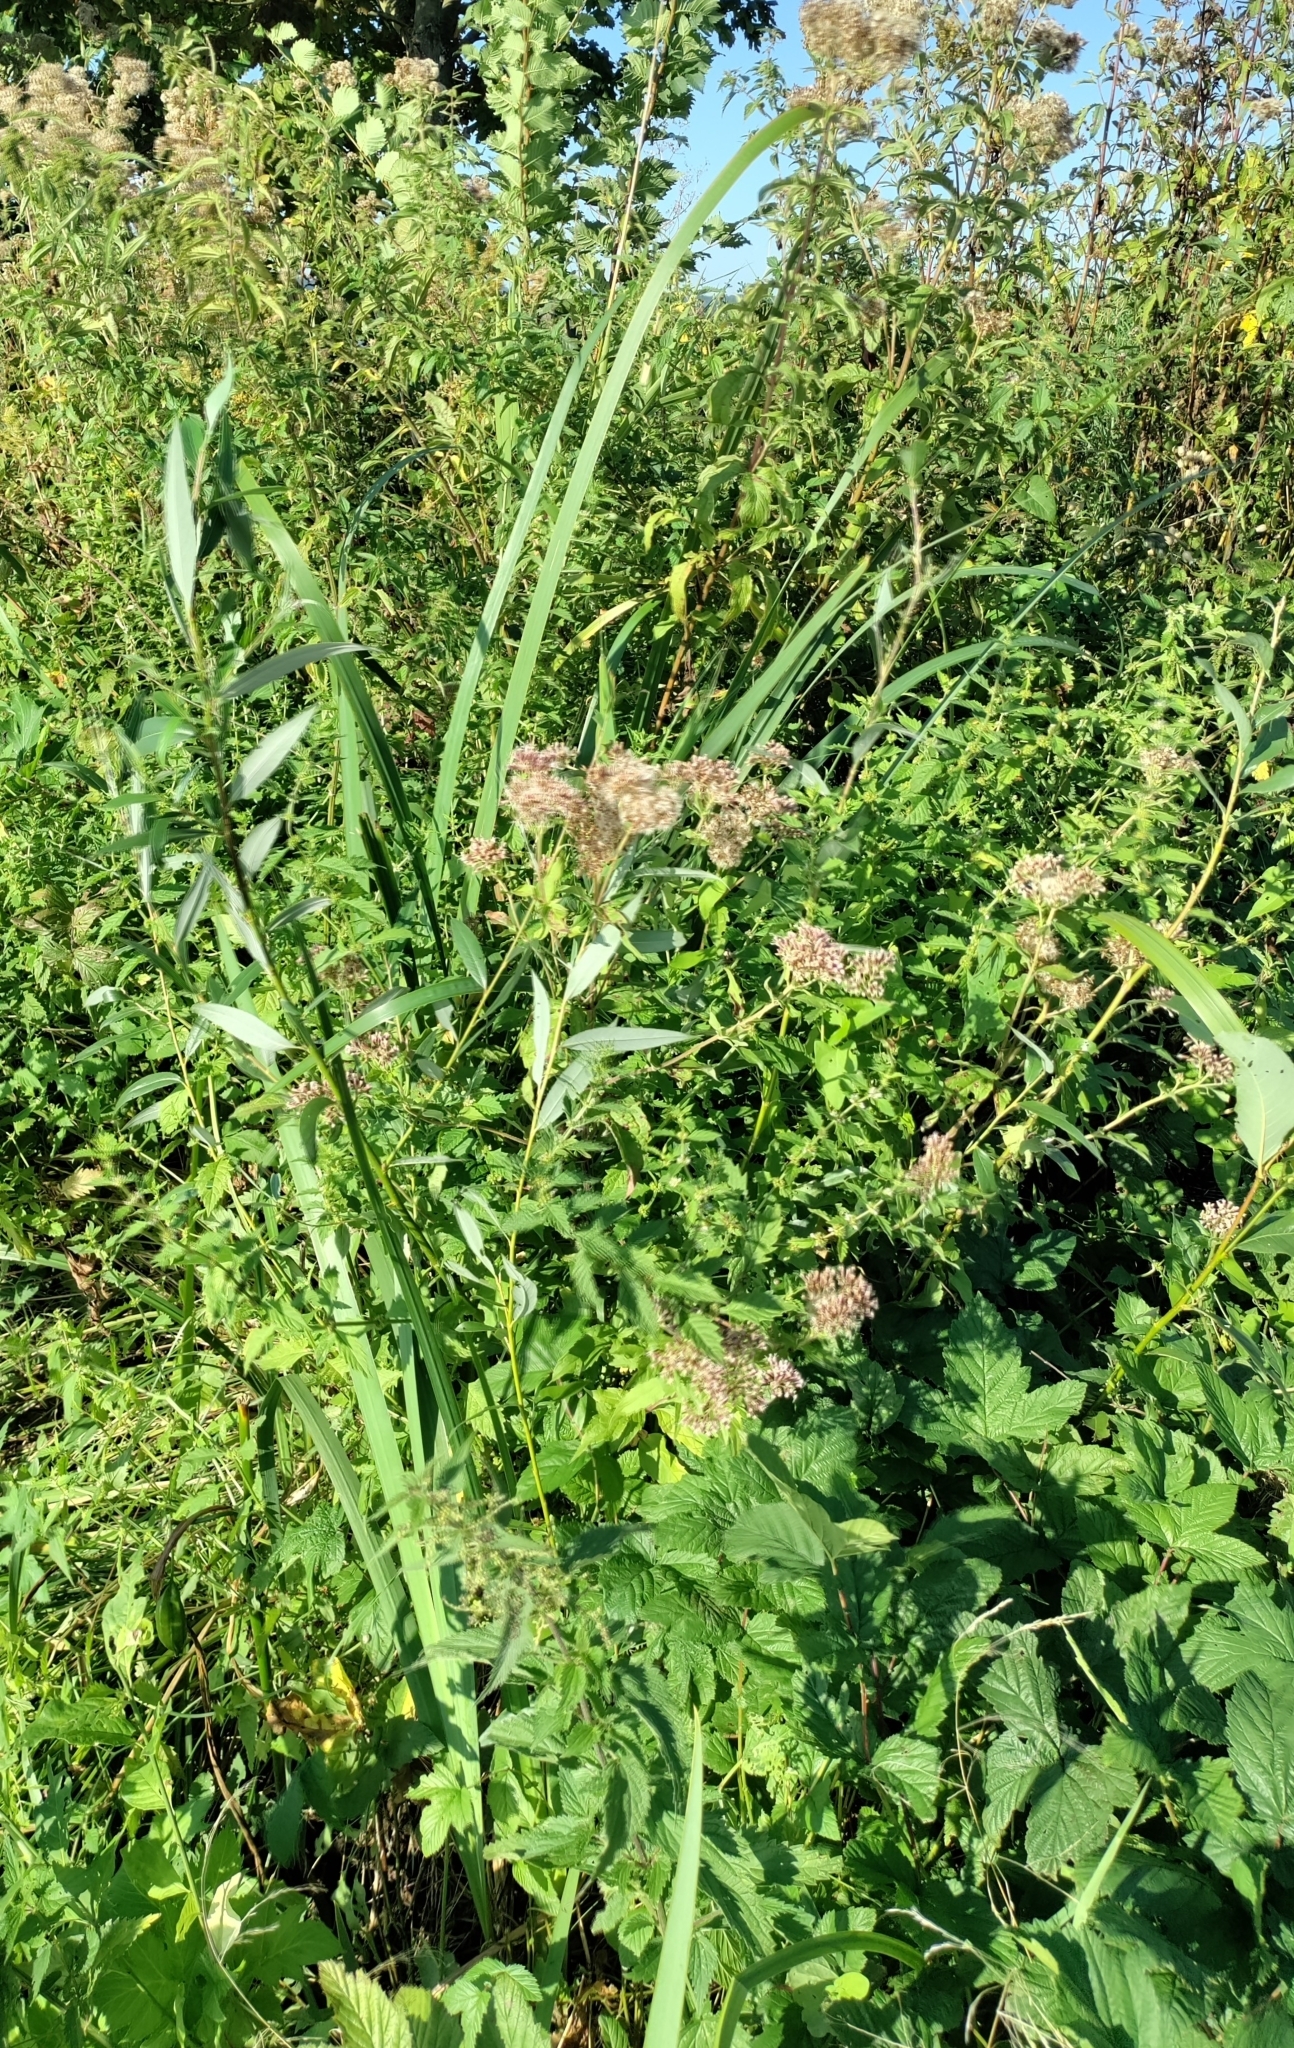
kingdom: Plantae
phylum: Tracheophyta
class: Liliopsida
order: Asparagales
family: Iridaceae
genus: Iris
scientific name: Iris pseudacorus
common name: Yellow flag
